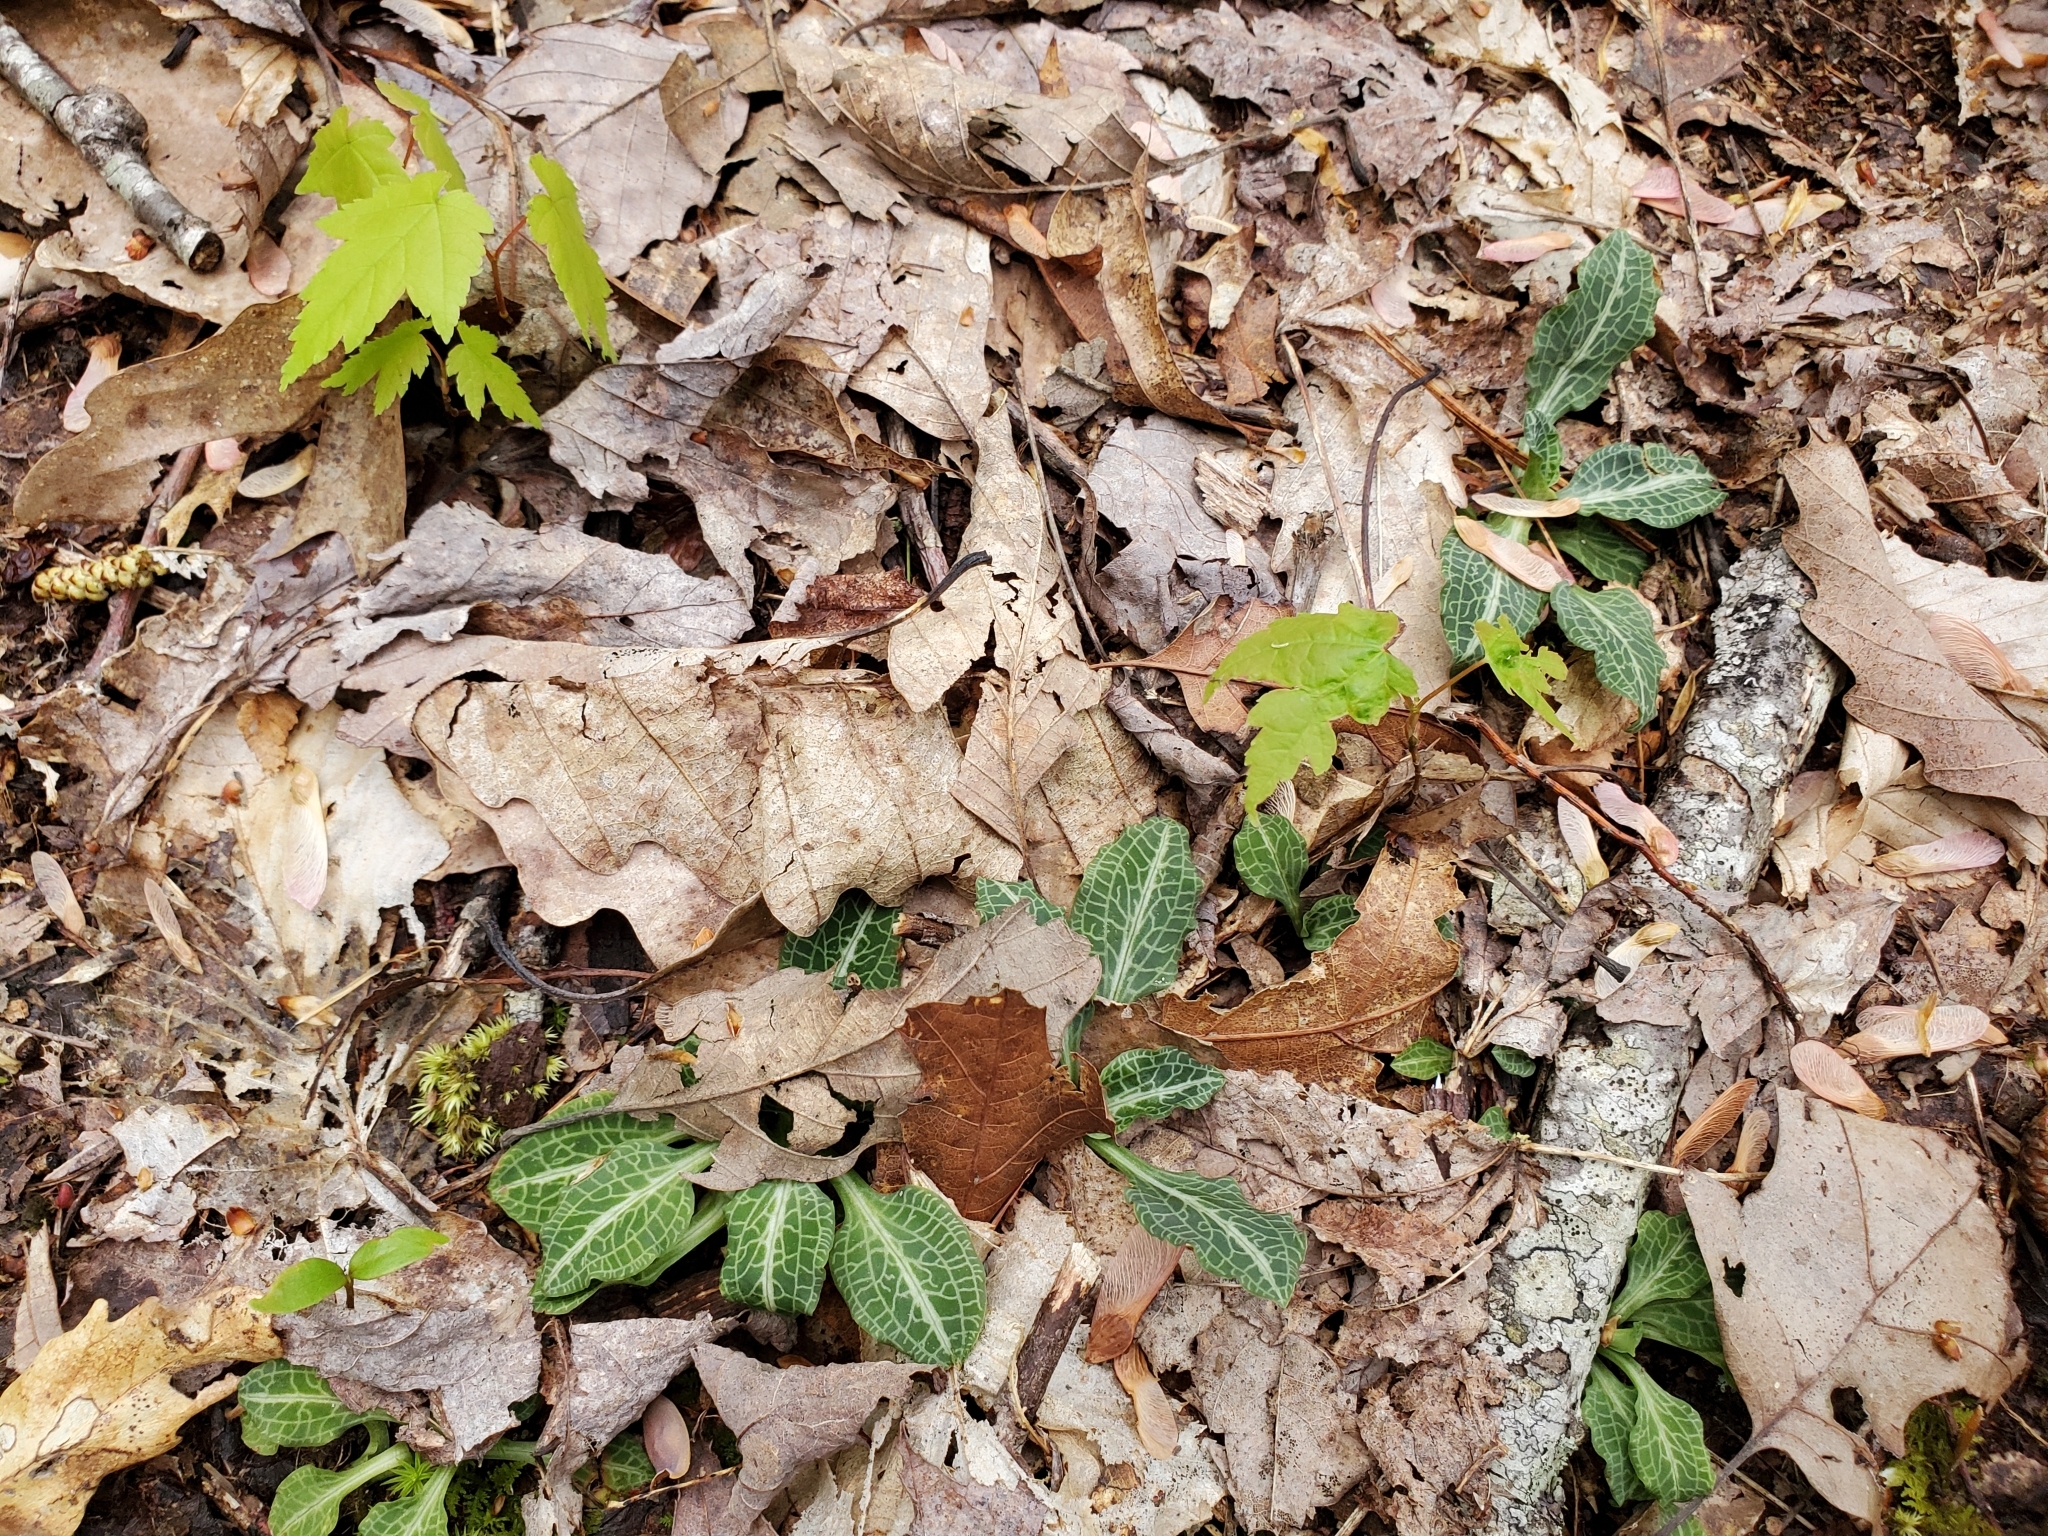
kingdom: Plantae
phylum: Tracheophyta
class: Liliopsida
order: Asparagales
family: Orchidaceae
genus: Goodyera
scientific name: Goodyera pubescens
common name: Downy rattlesnake-plantain
